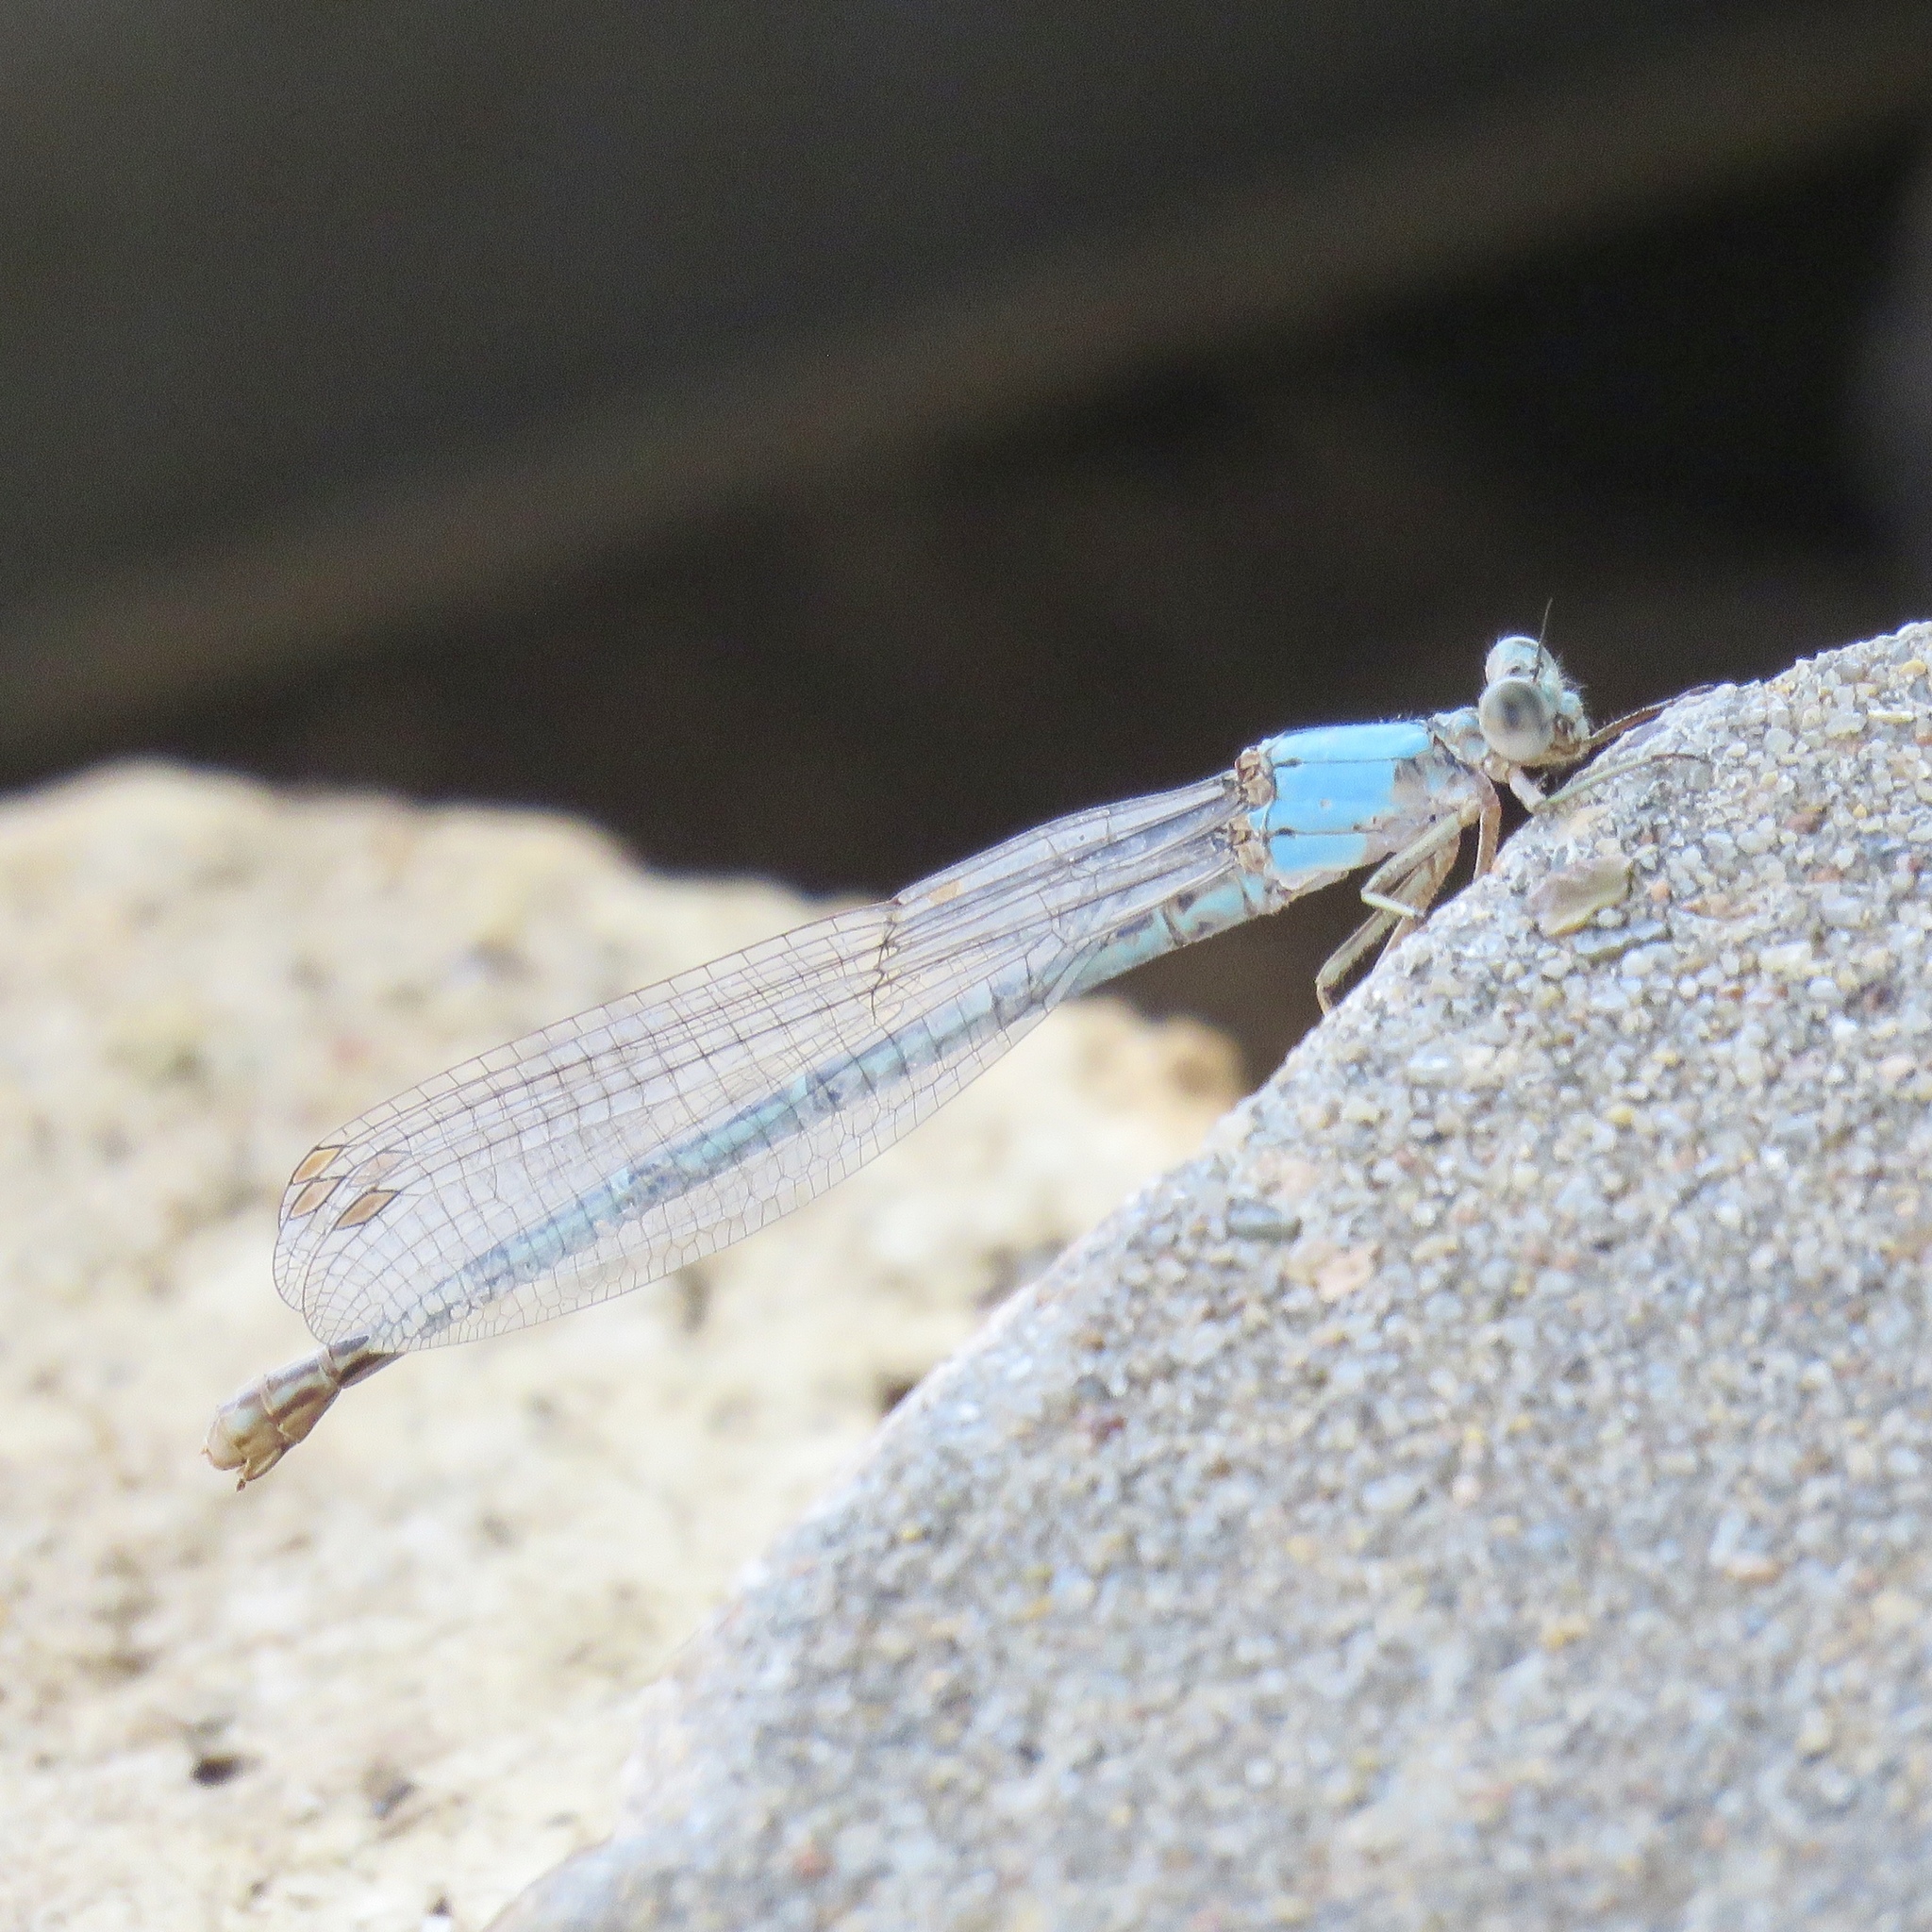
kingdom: Animalia
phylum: Arthropoda
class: Insecta
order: Odonata
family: Coenagrionidae
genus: Argia
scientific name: Argia
